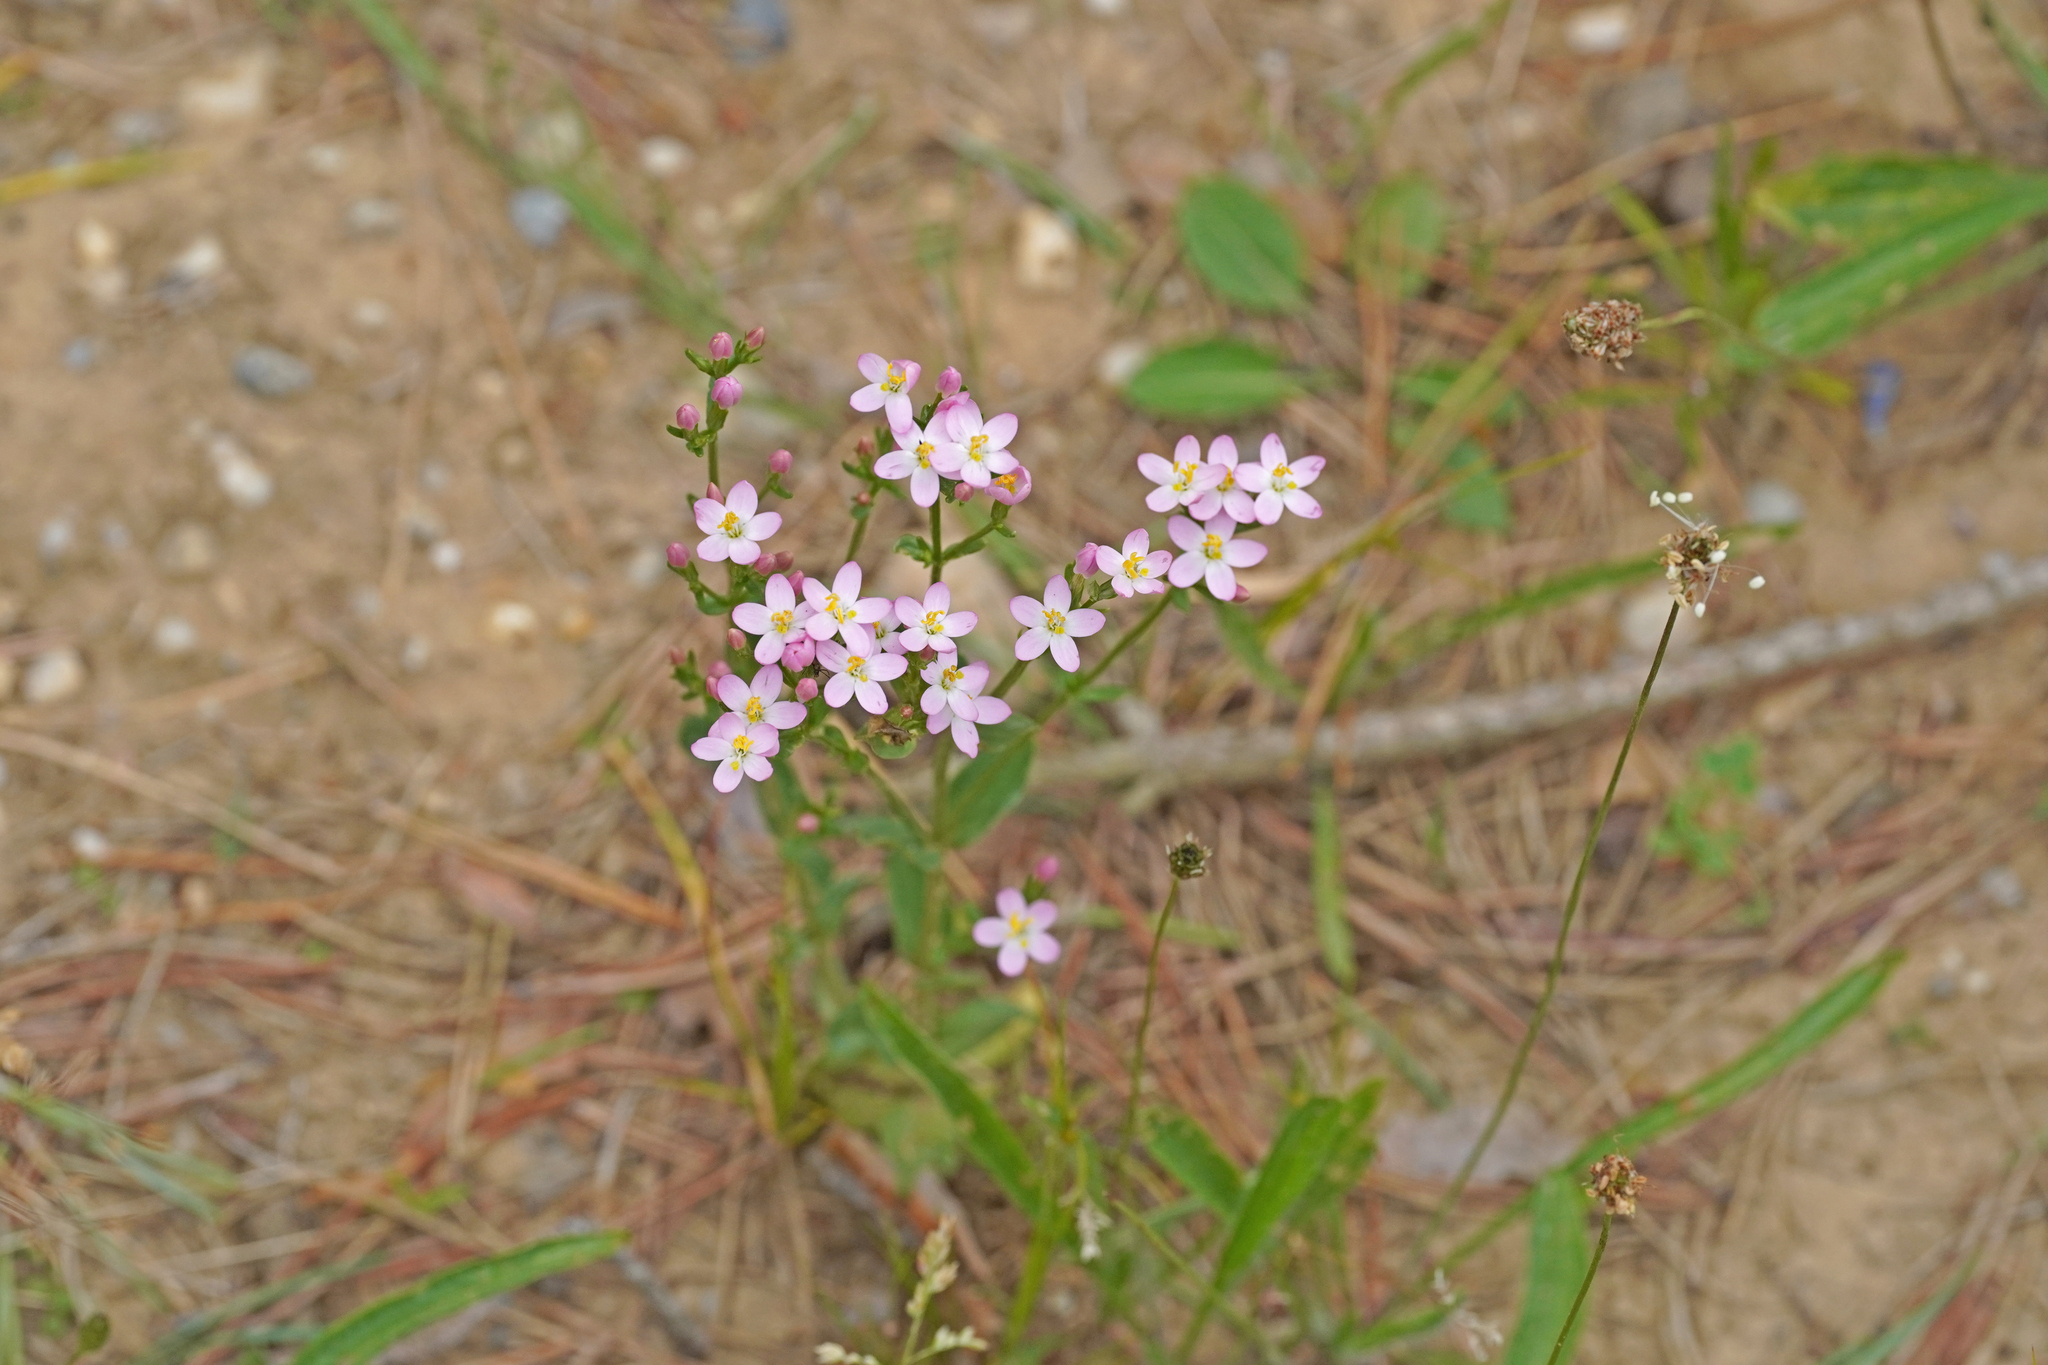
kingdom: Plantae
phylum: Tracheophyta
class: Magnoliopsida
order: Gentianales
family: Gentianaceae
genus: Centaurium
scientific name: Centaurium erythraea
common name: Common centaury
